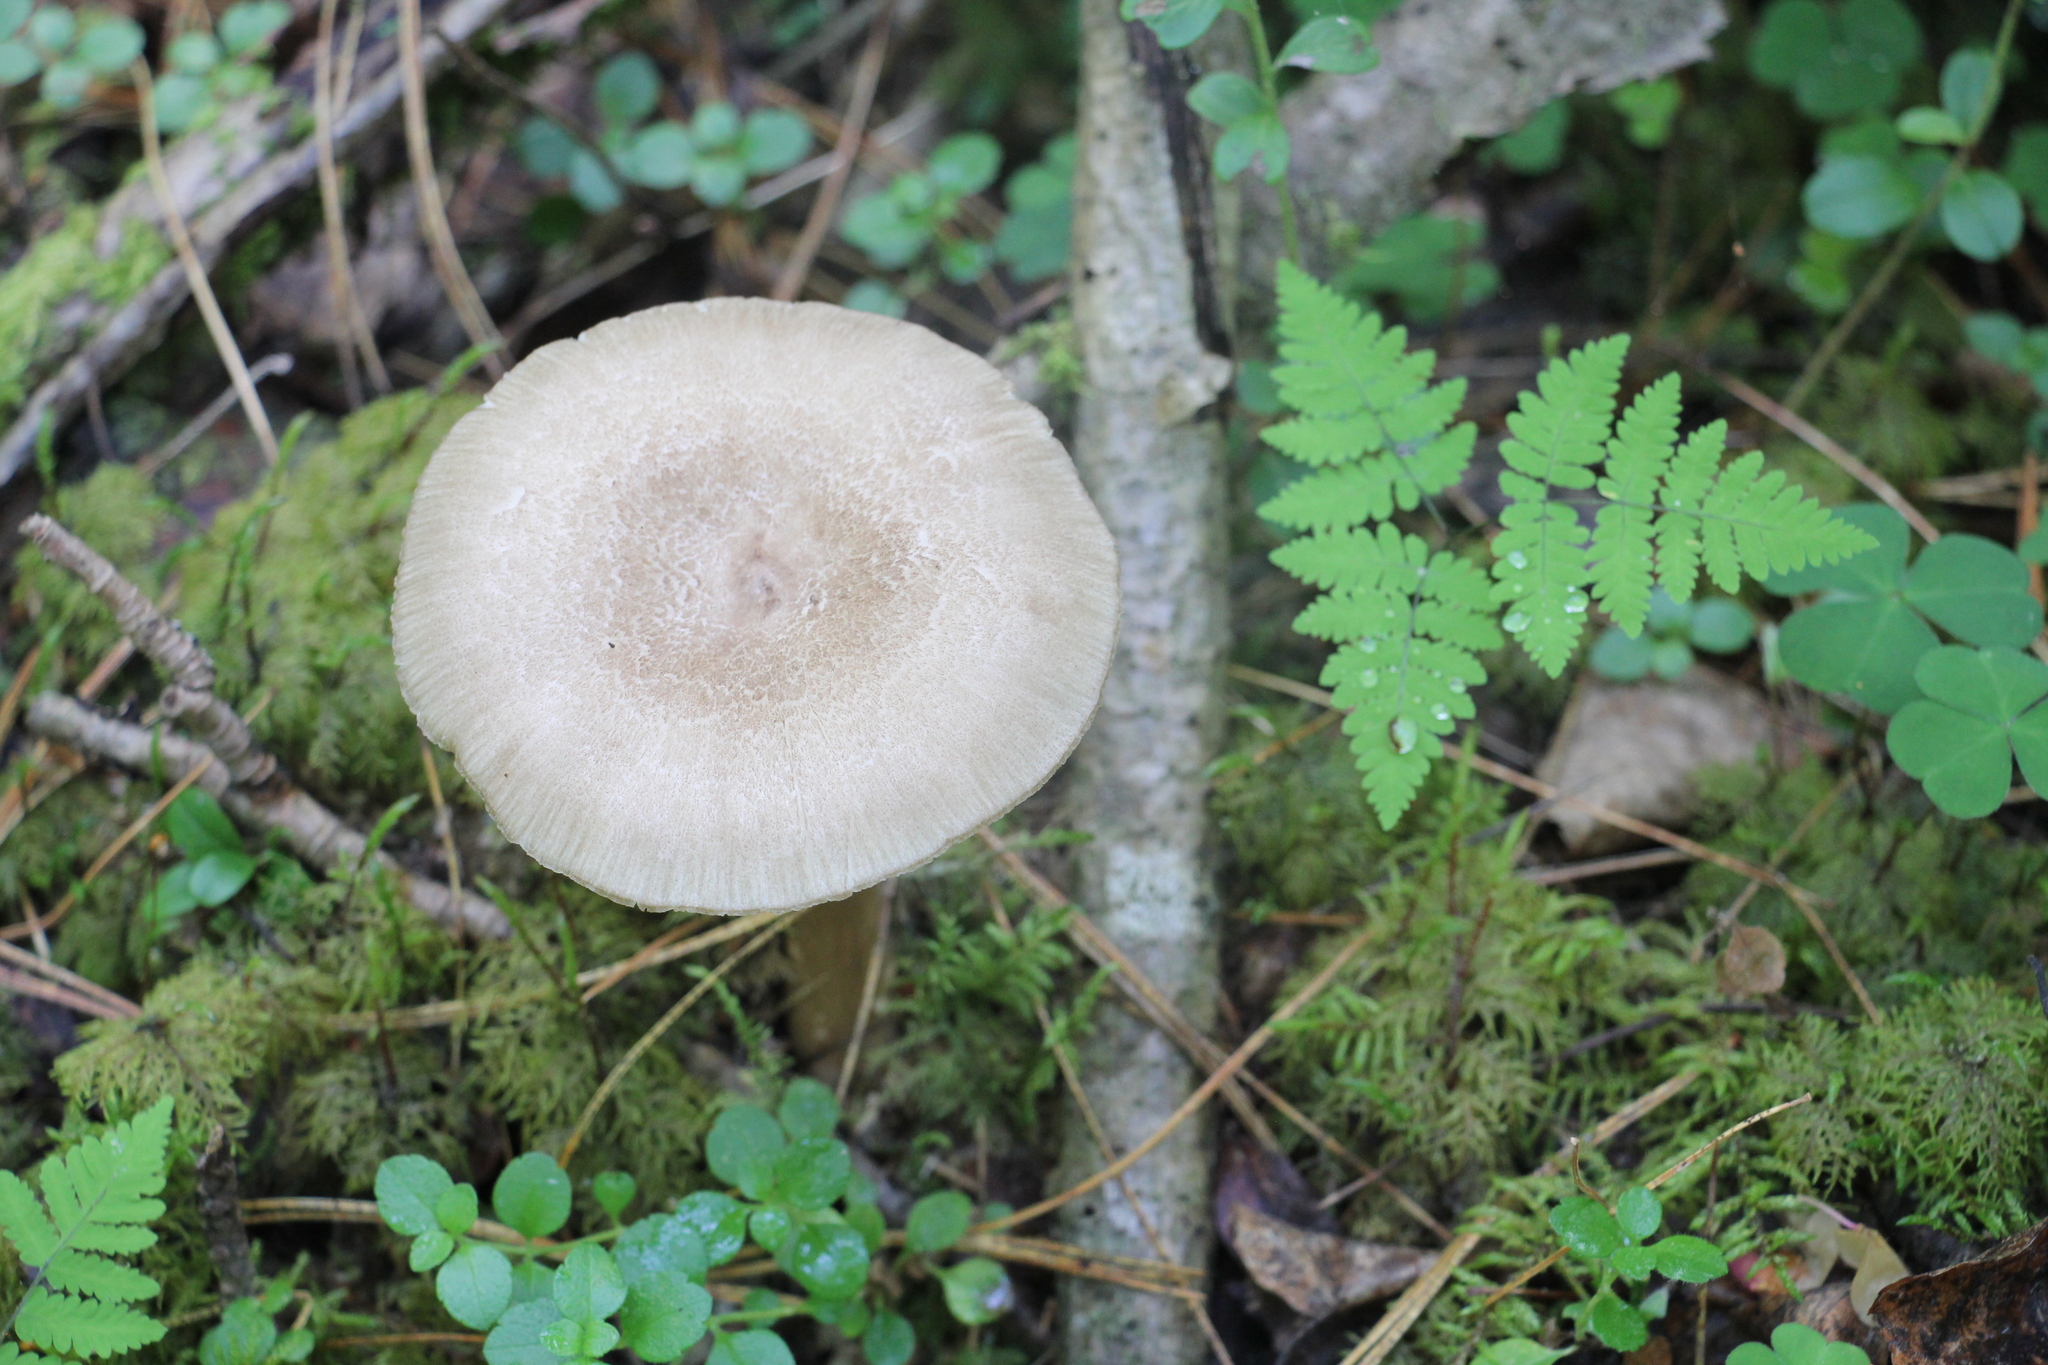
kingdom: Fungi
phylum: Basidiomycota
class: Agaricomycetes
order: Agaricales
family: Tricholomataceae
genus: Megacollybia
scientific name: Megacollybia platyphylla
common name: Whitelaced shank
